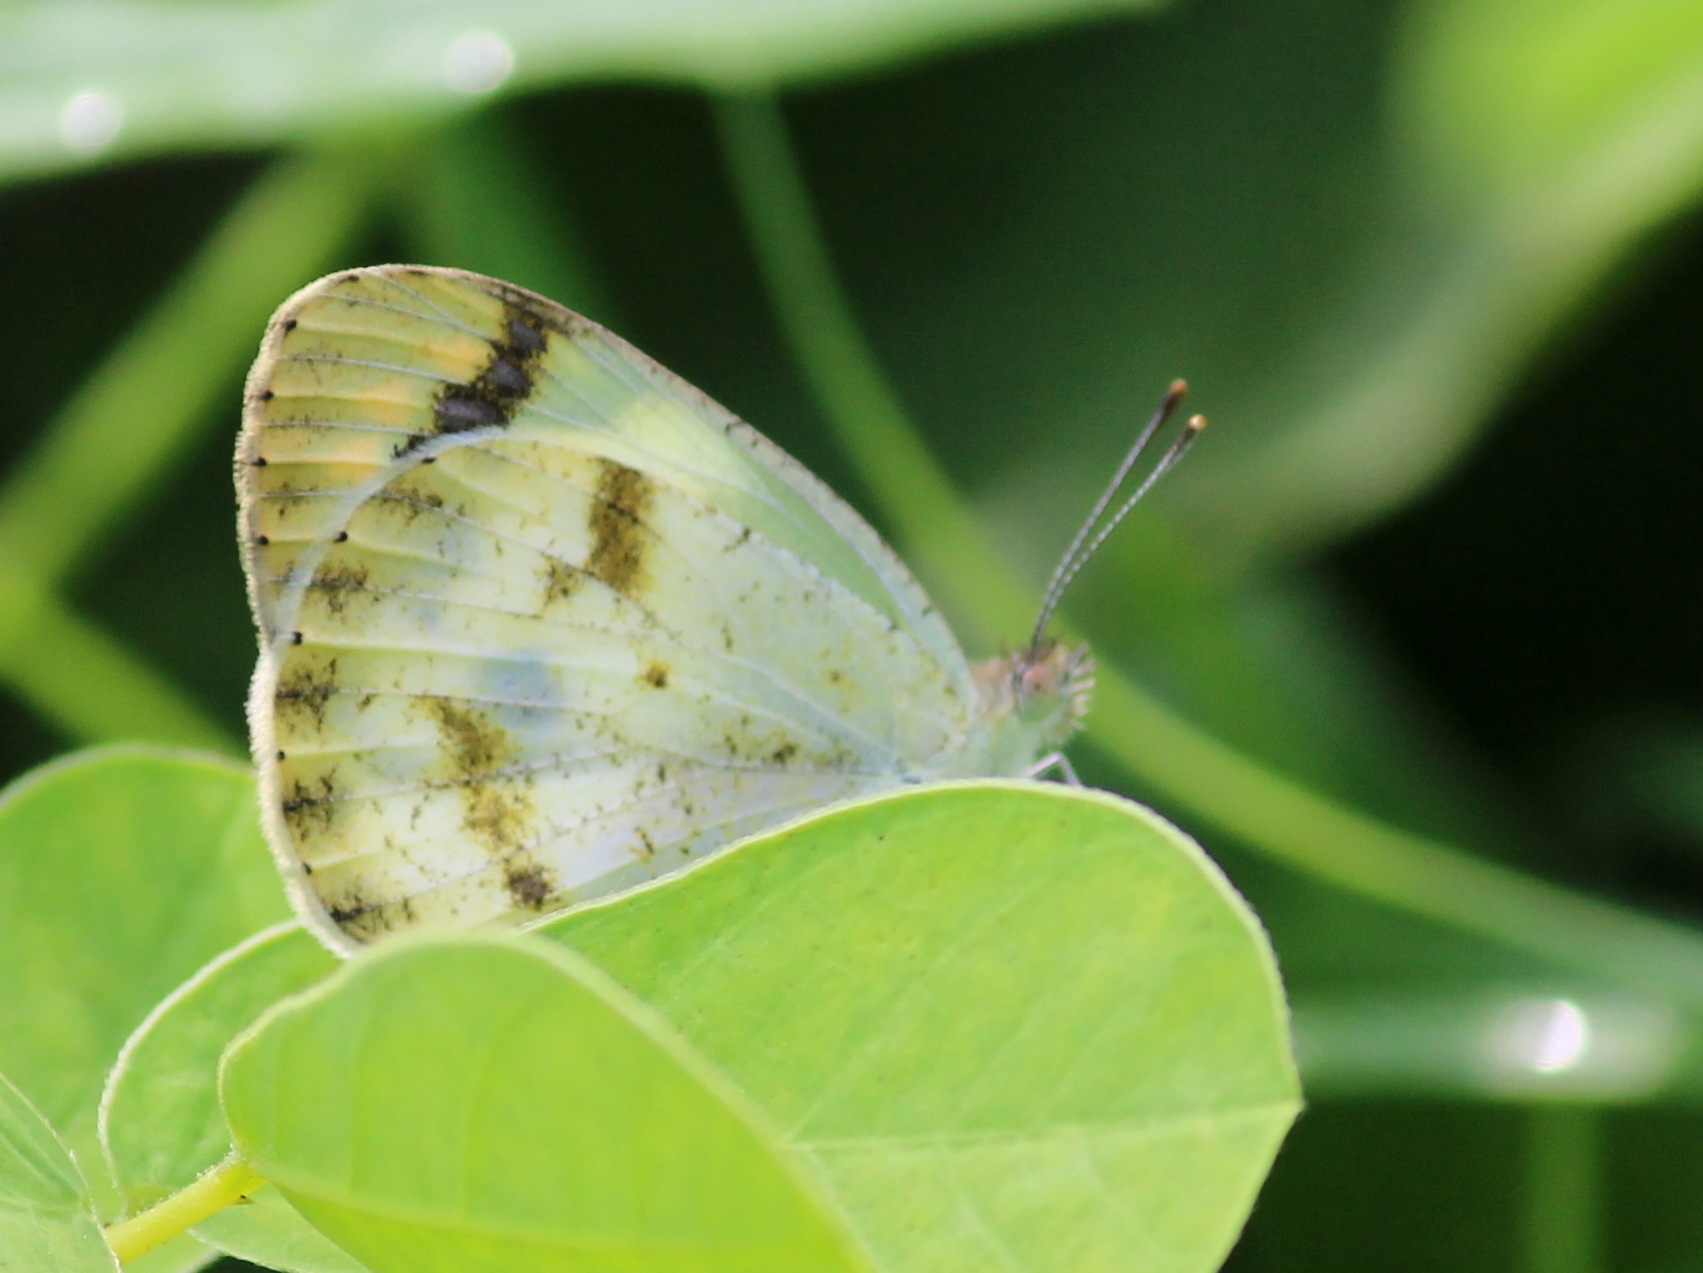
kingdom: Animalia
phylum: Arthropoda
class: Insecta
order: Lepidoptera
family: Pieridae
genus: Colotis
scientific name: Colotis aurora
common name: Plain orange-tip
